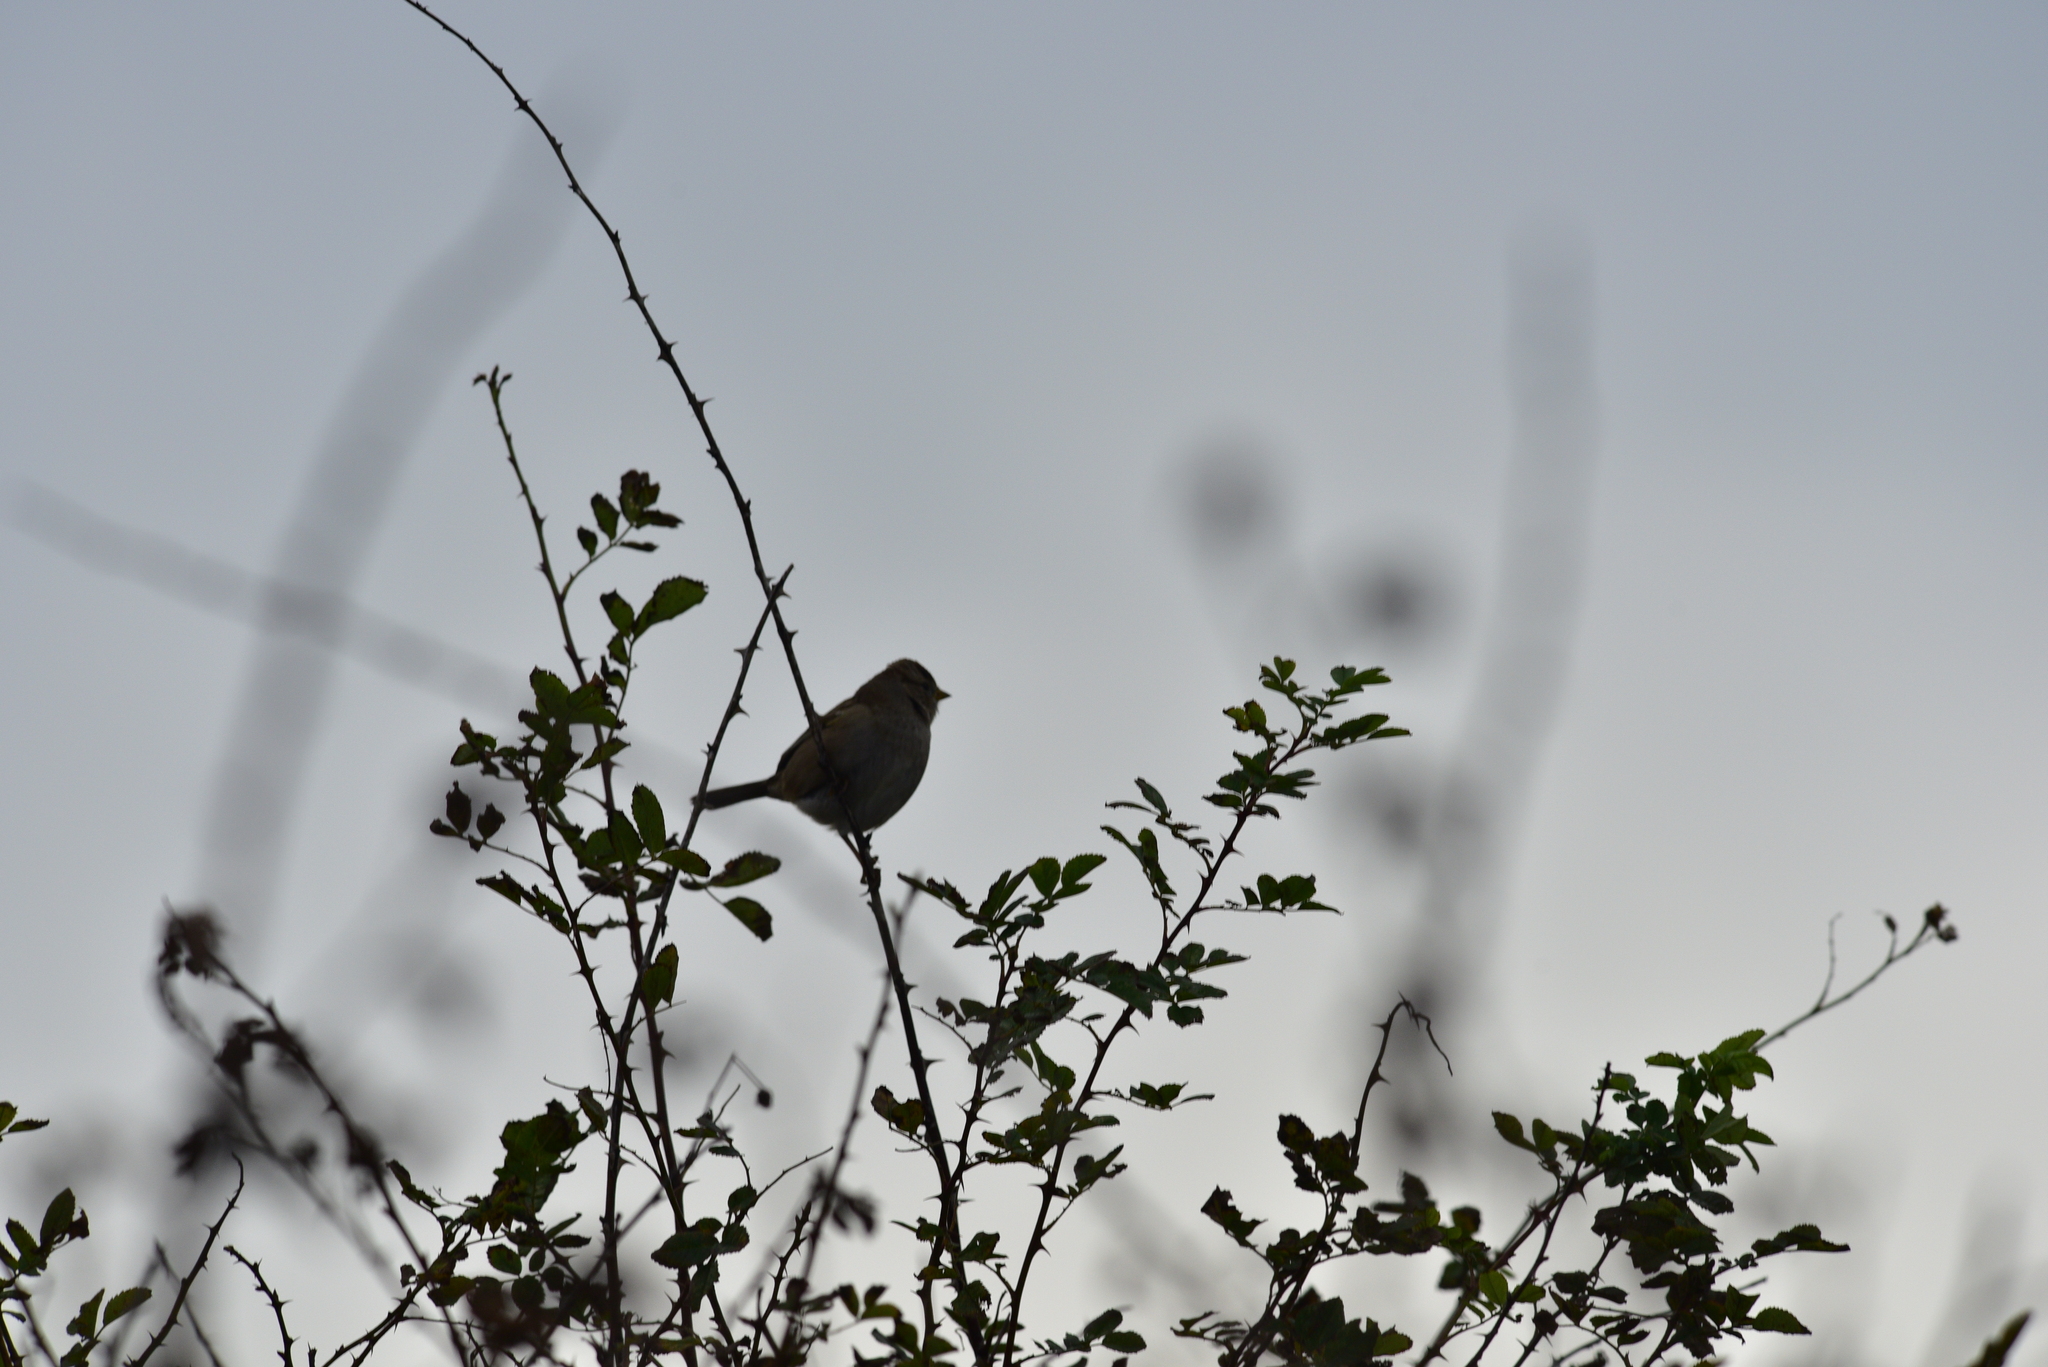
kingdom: Animalia
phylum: Chordata
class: Aves
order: Passeriformes
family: Passerellidae
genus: Zonotrichia
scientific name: Zonotrichia leucophrys
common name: White-crowned sparrow
